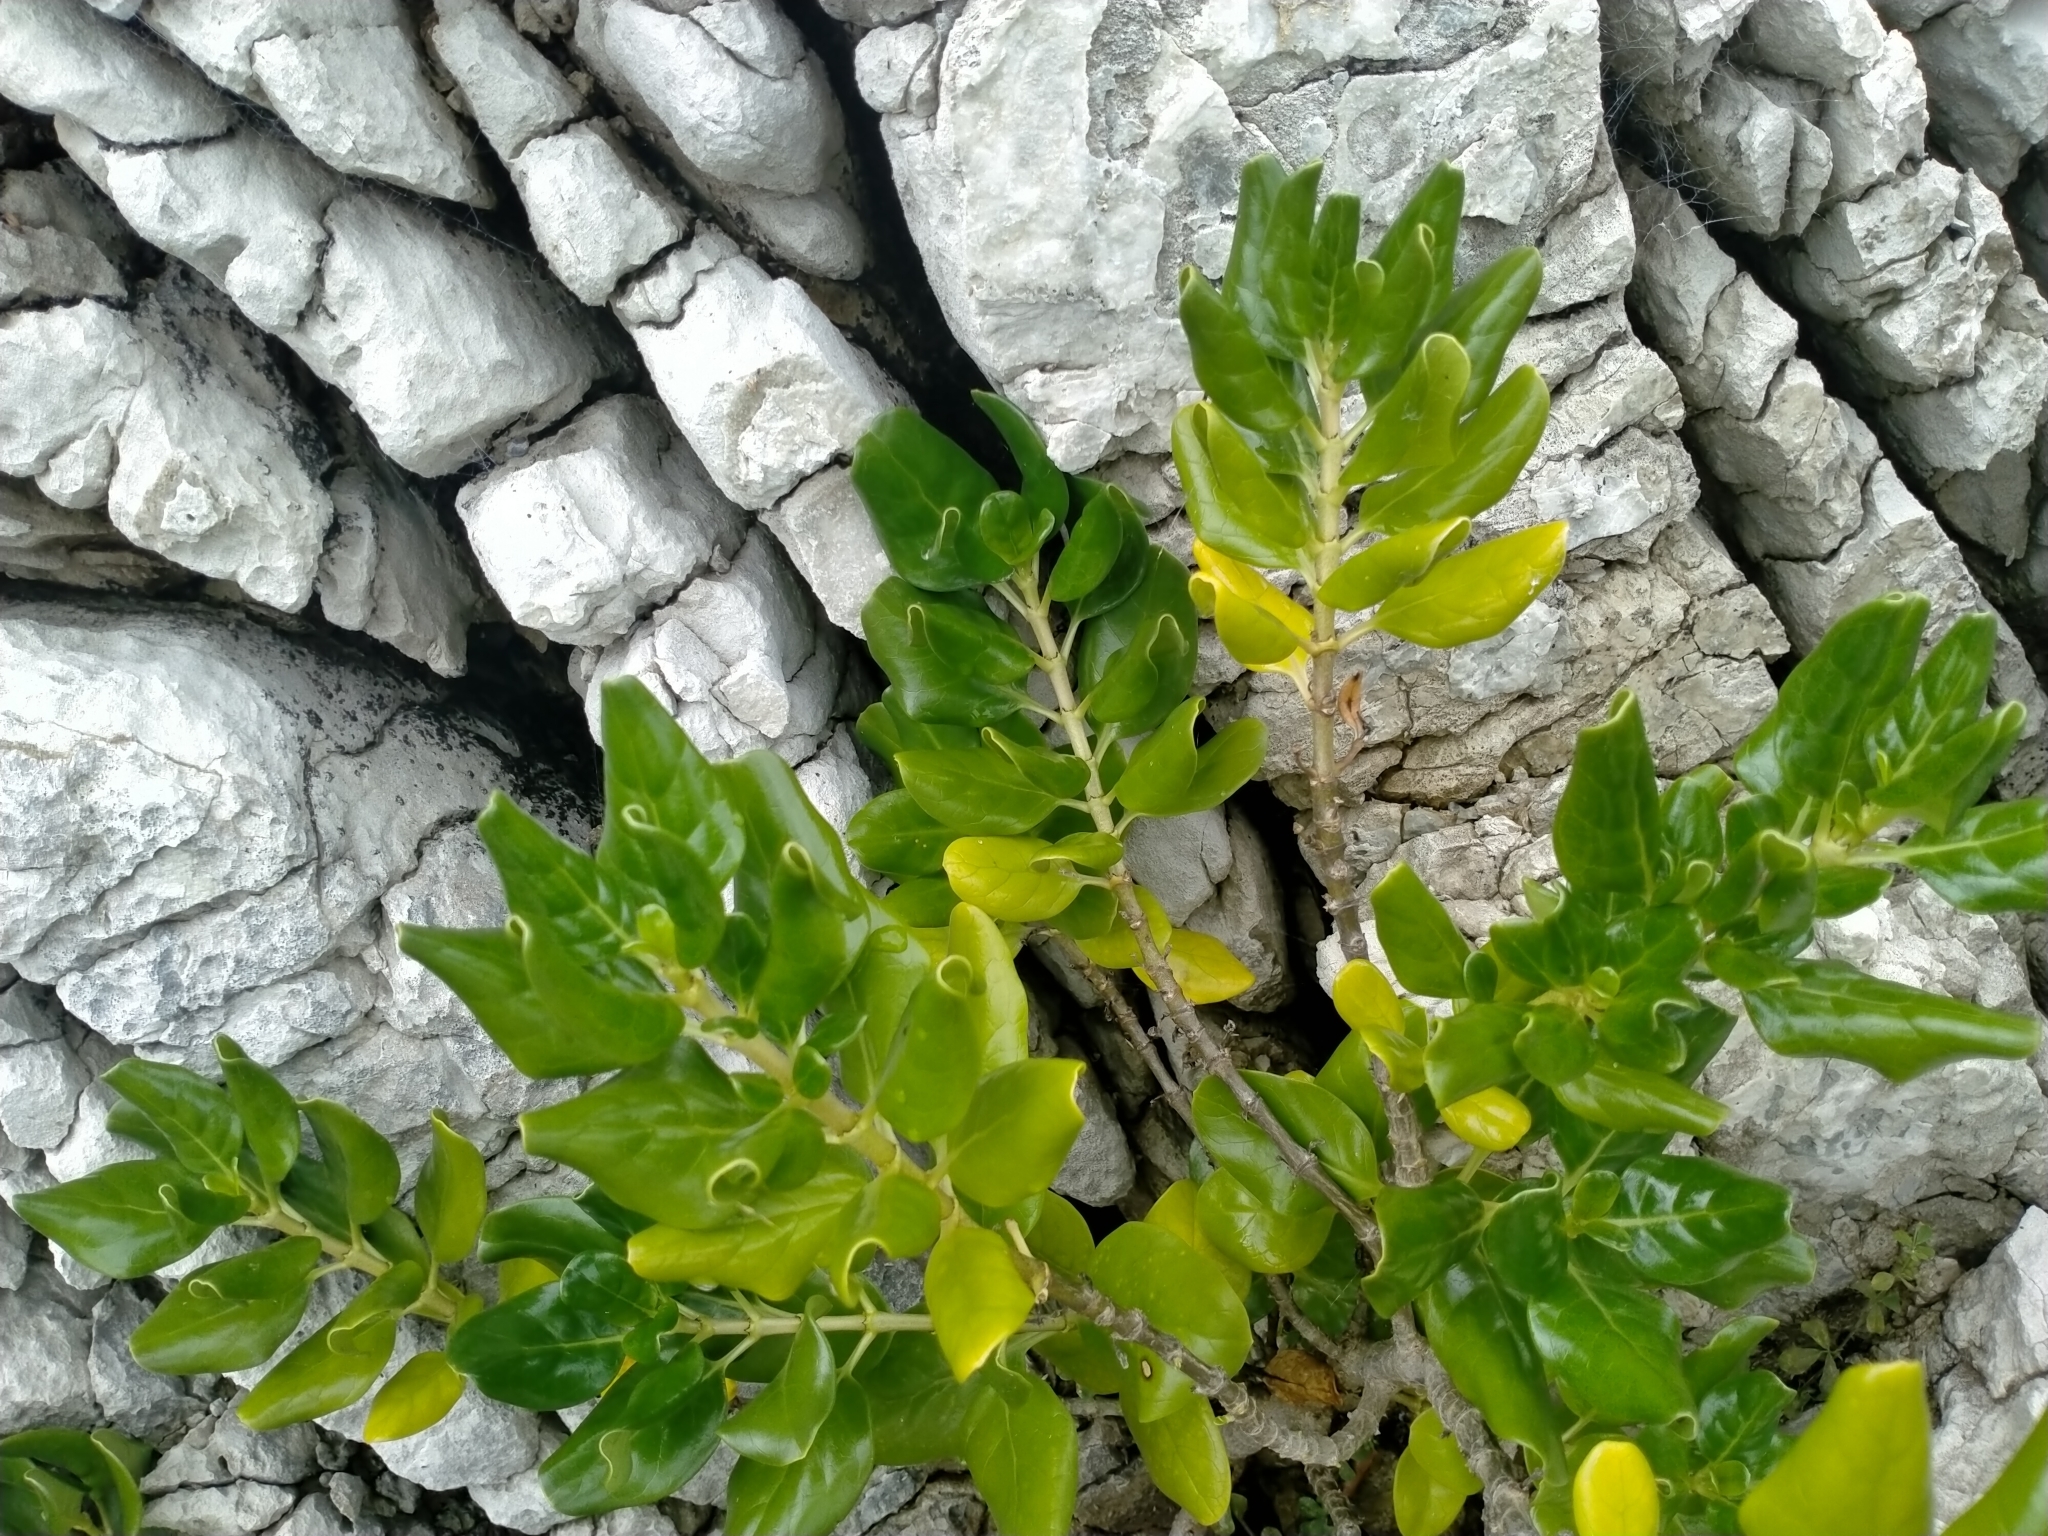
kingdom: Plantae
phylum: Tracheophyta
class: Magnoliopsida
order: Gentianales
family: Rubiaceae
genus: Coprosma
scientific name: Coprosma repens
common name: Tree bedstraw
